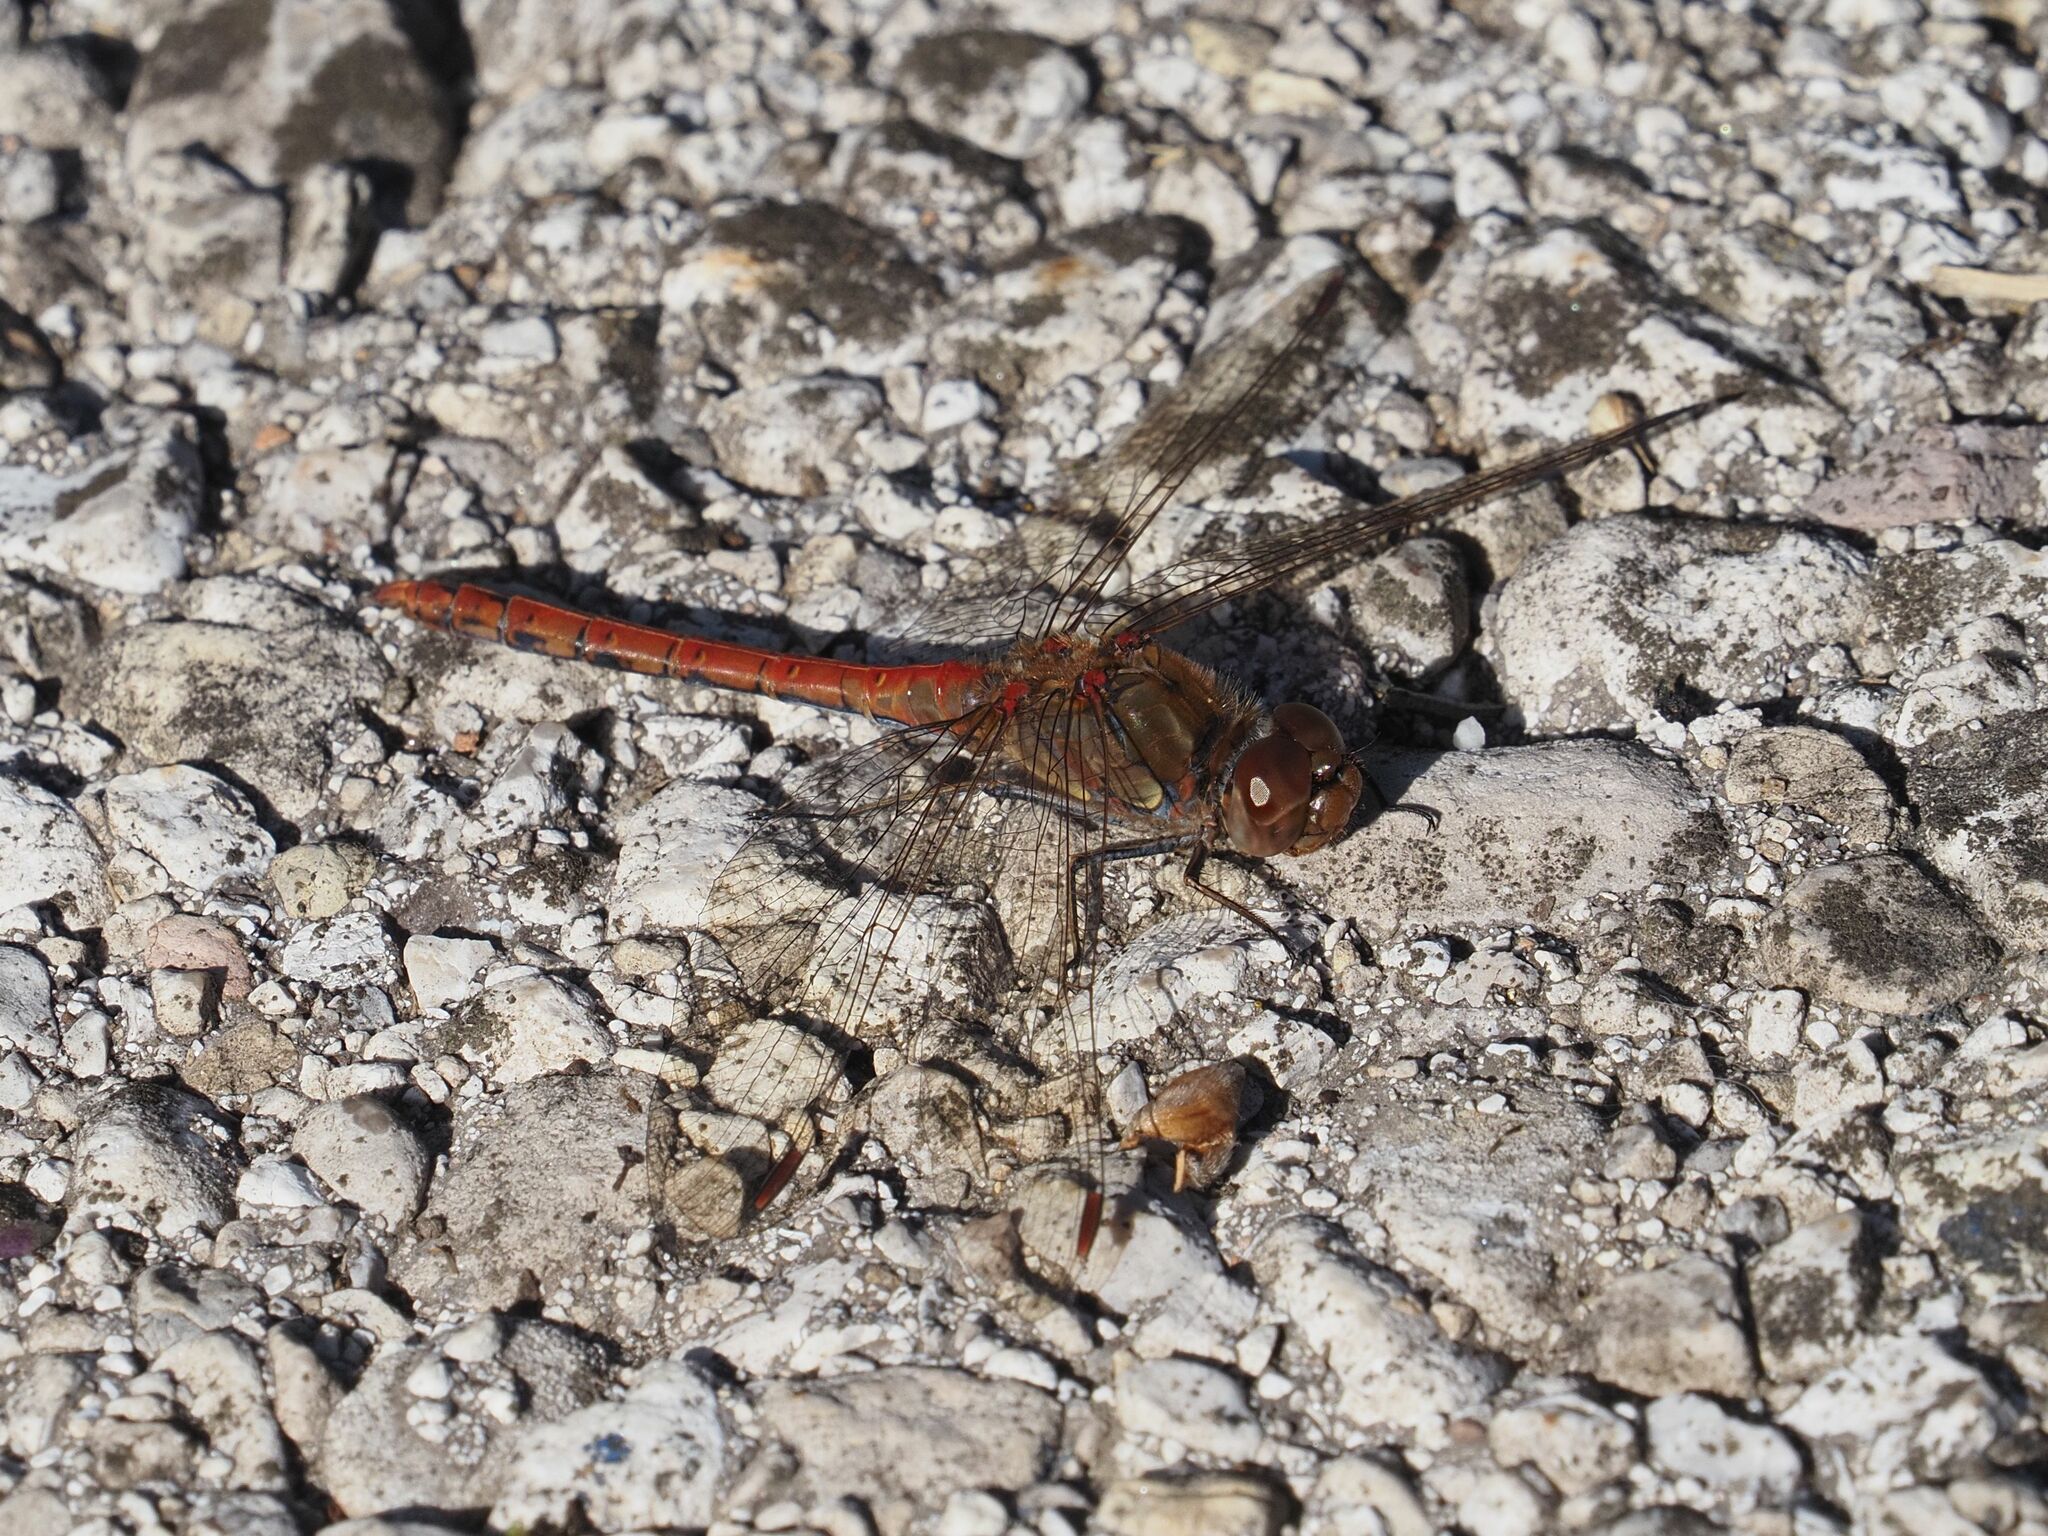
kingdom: Animalia
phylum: Arthropoda
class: Insecta
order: Odonata
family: Libellulidae
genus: Sympetrum
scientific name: Sympetrum striolatum
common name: Common darter
